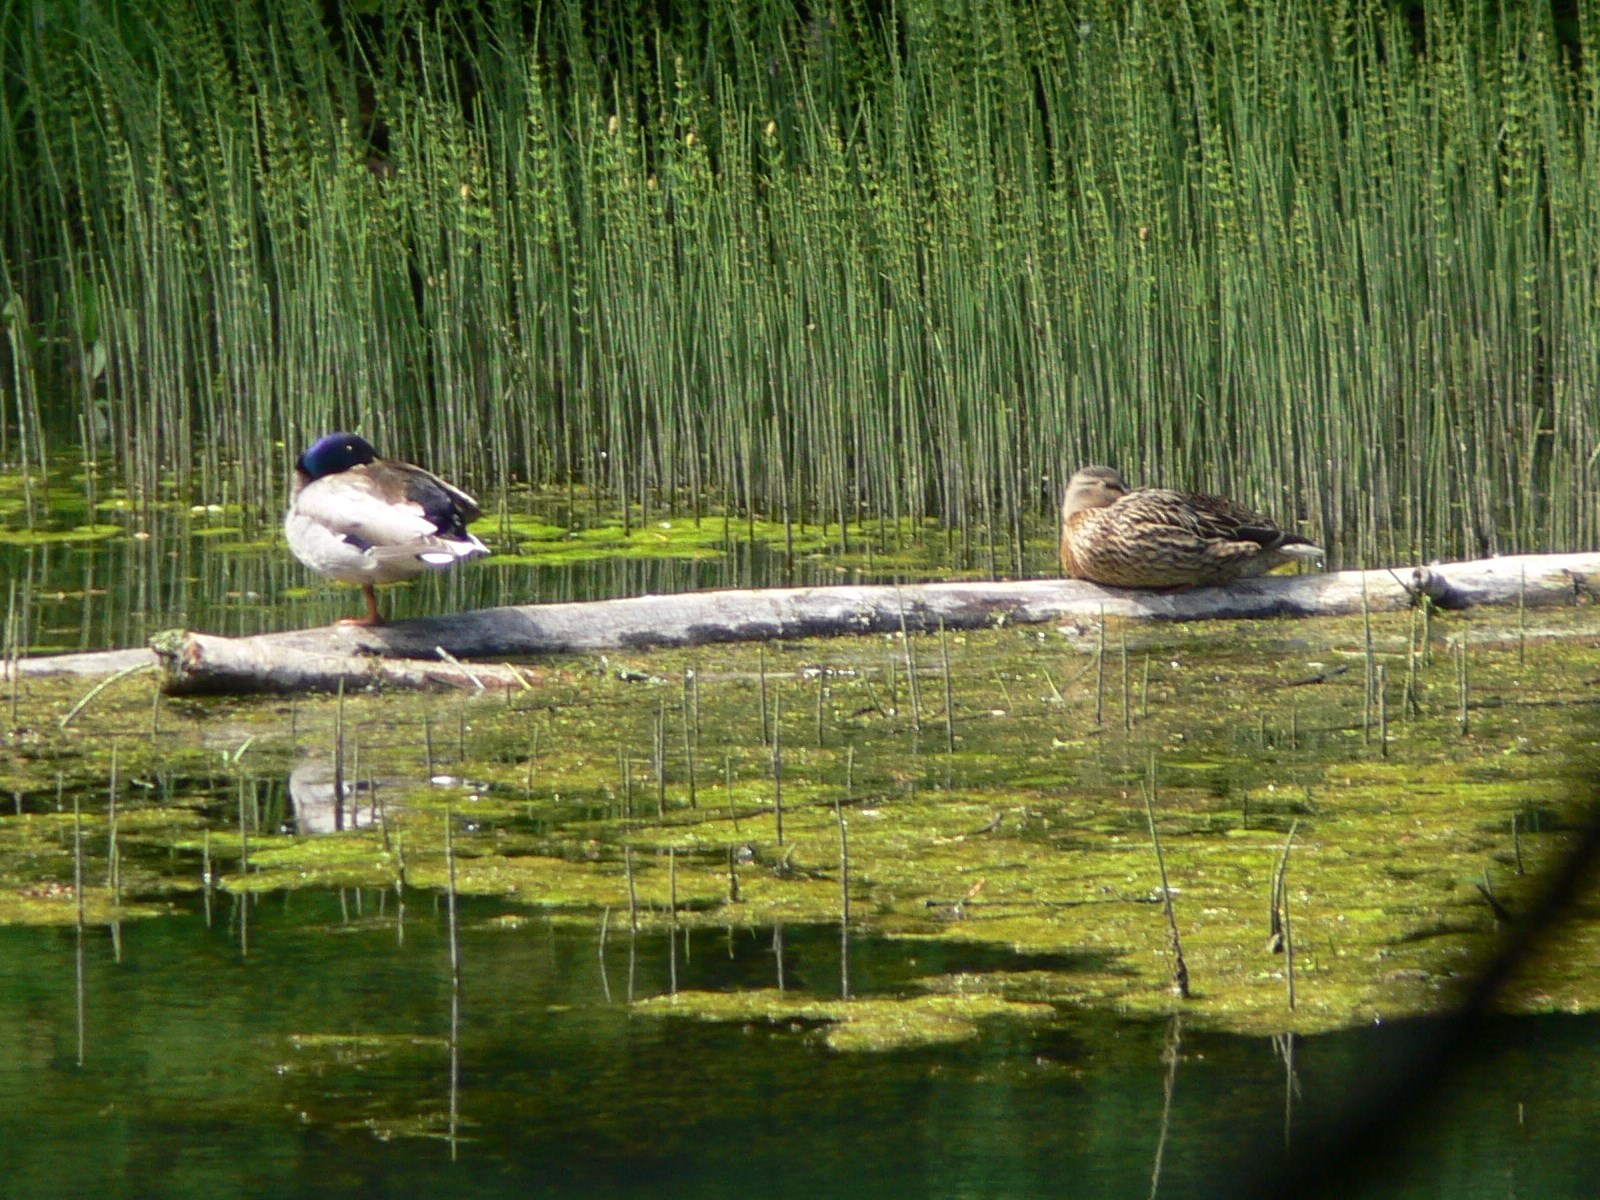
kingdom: Animalia
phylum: Chordata
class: Aves
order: Anseriformes
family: Anatidae
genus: Anas
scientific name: Anas platyrhynchos
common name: Mallard
